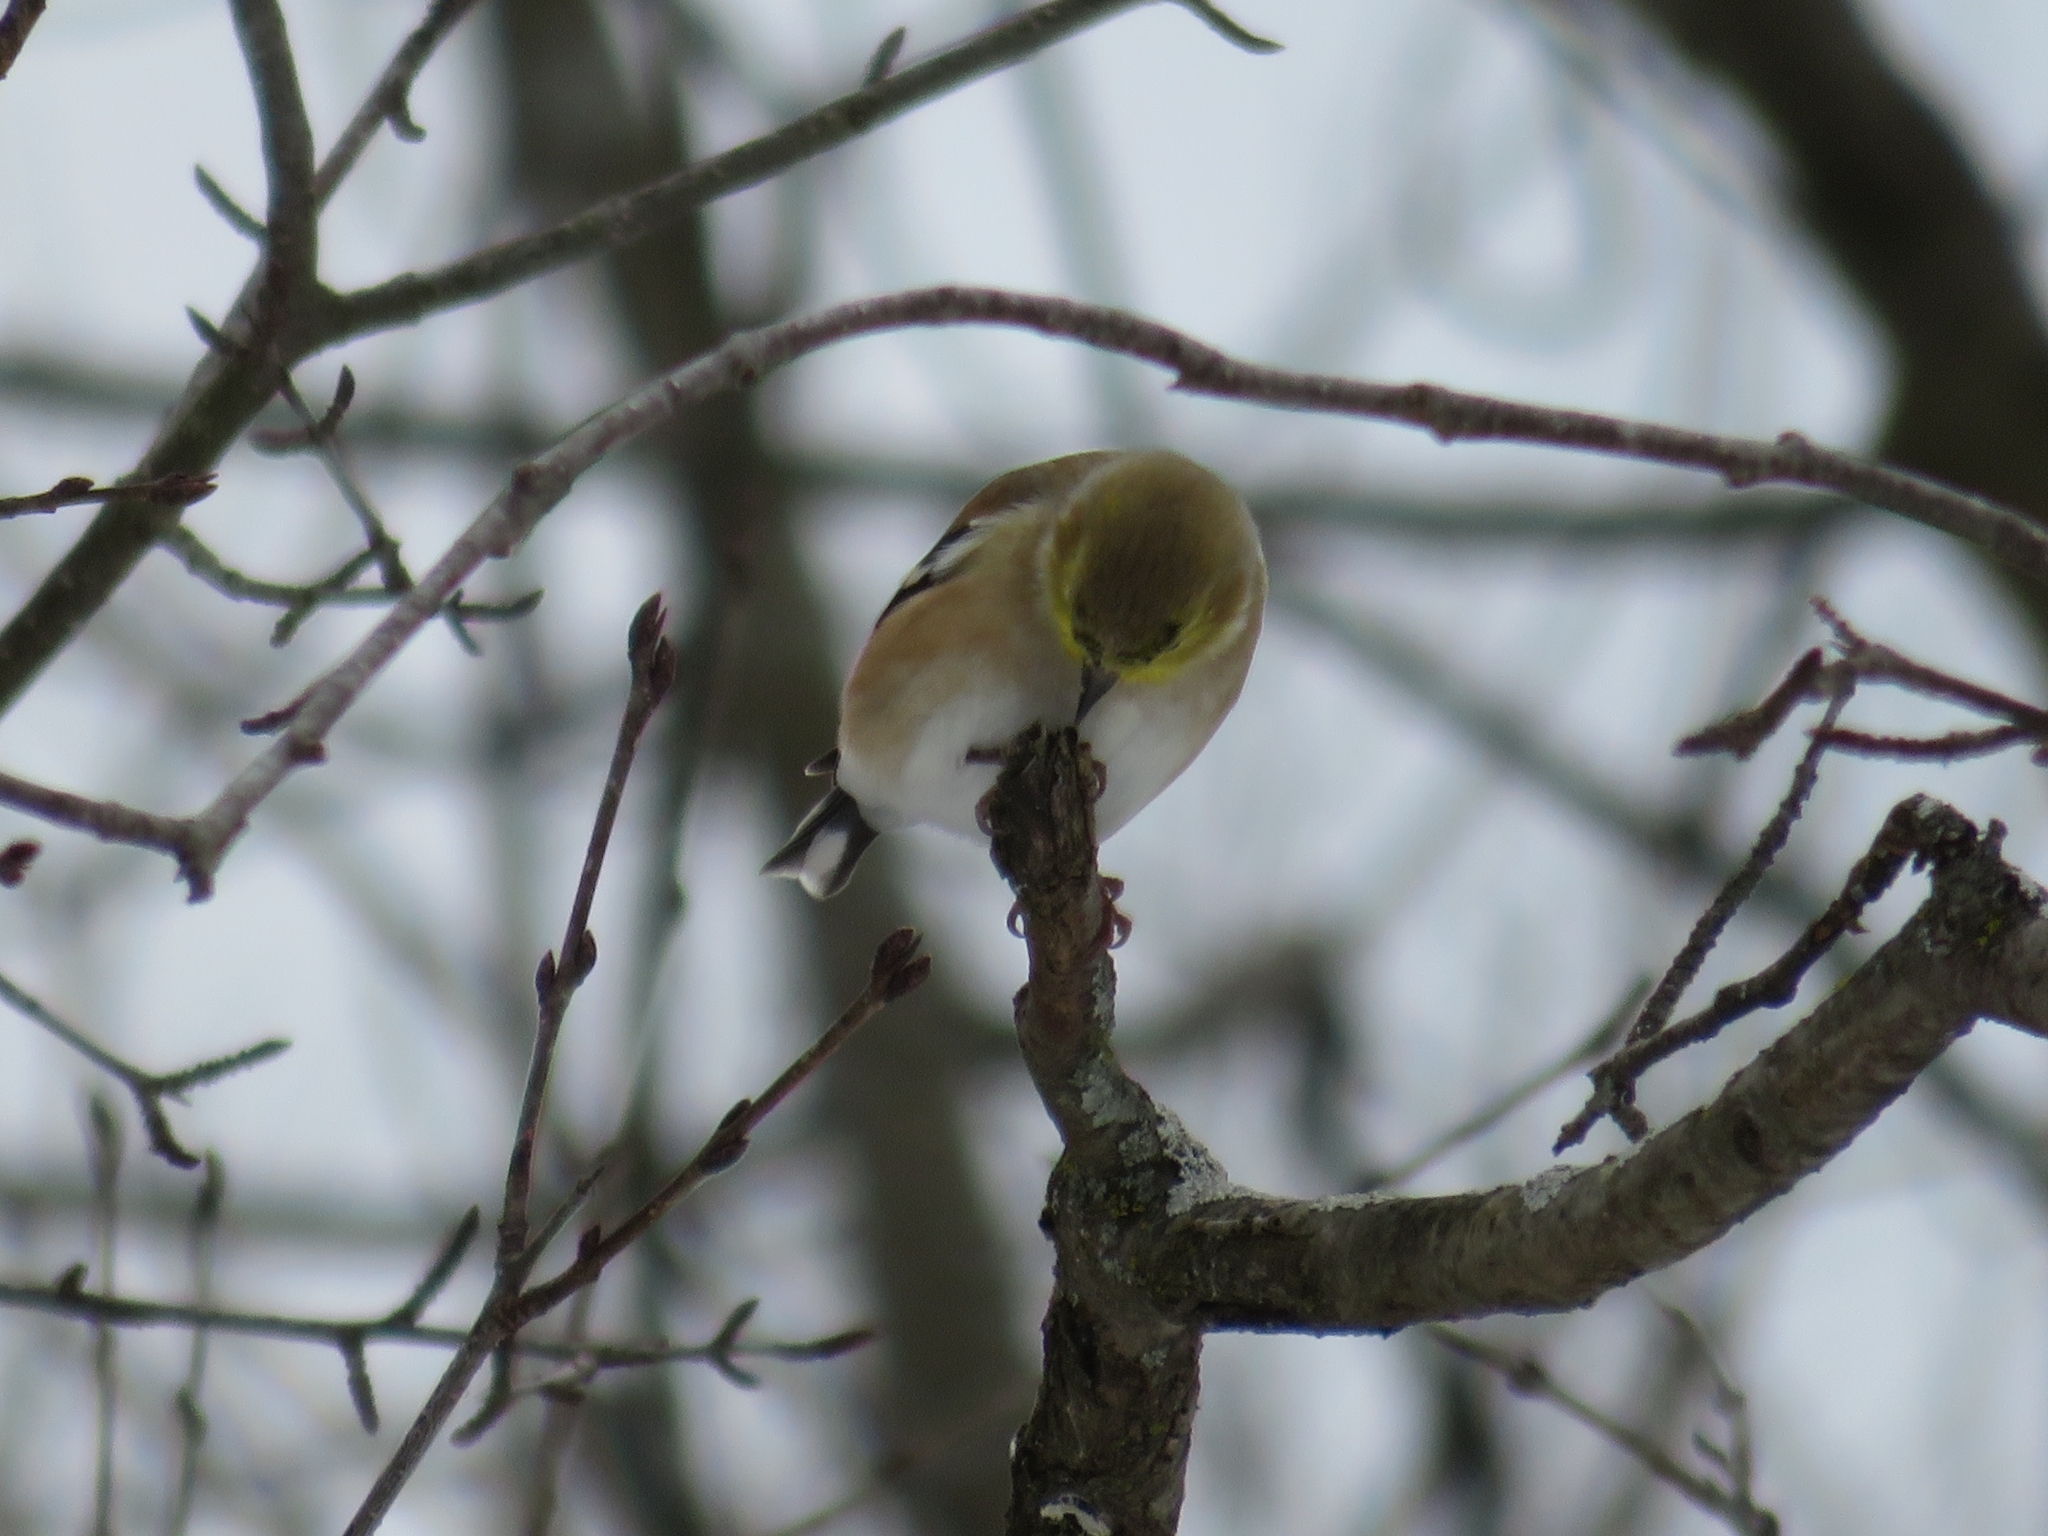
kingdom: Animalia
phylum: Chordata
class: Aves
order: Passeriformes
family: Fringillidae
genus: Spinus
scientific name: Spinus tristis
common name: American goldfinch
